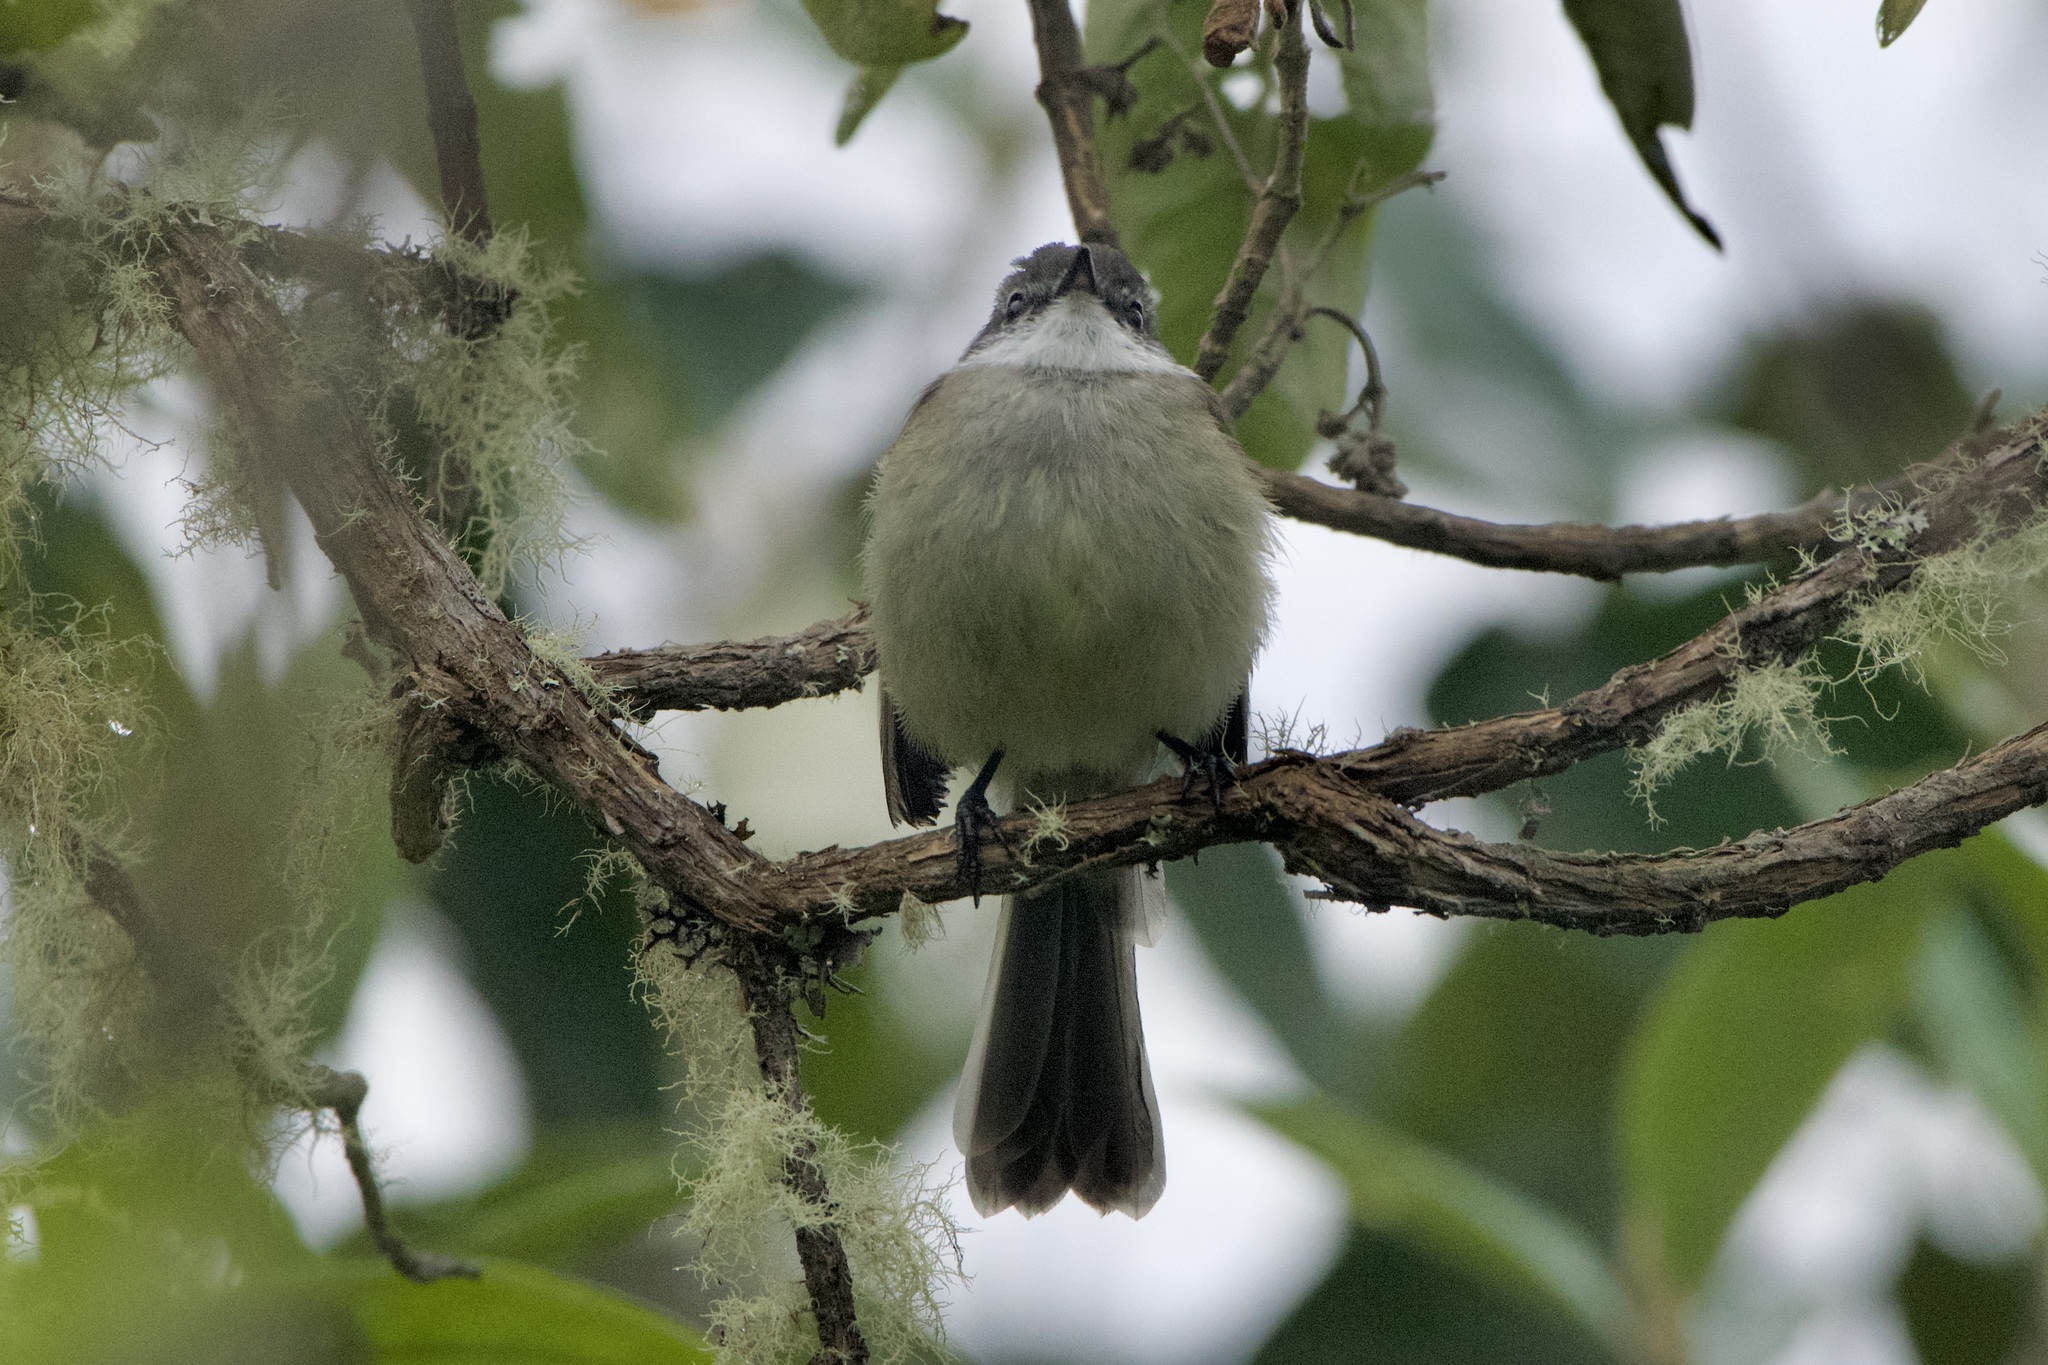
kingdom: Animalia
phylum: Chordata
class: Aves
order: Passeriformes
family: Tyrannidae
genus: Mecocerculus
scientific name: Mecocerculus leucophrys
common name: White-throated tyrannulet
